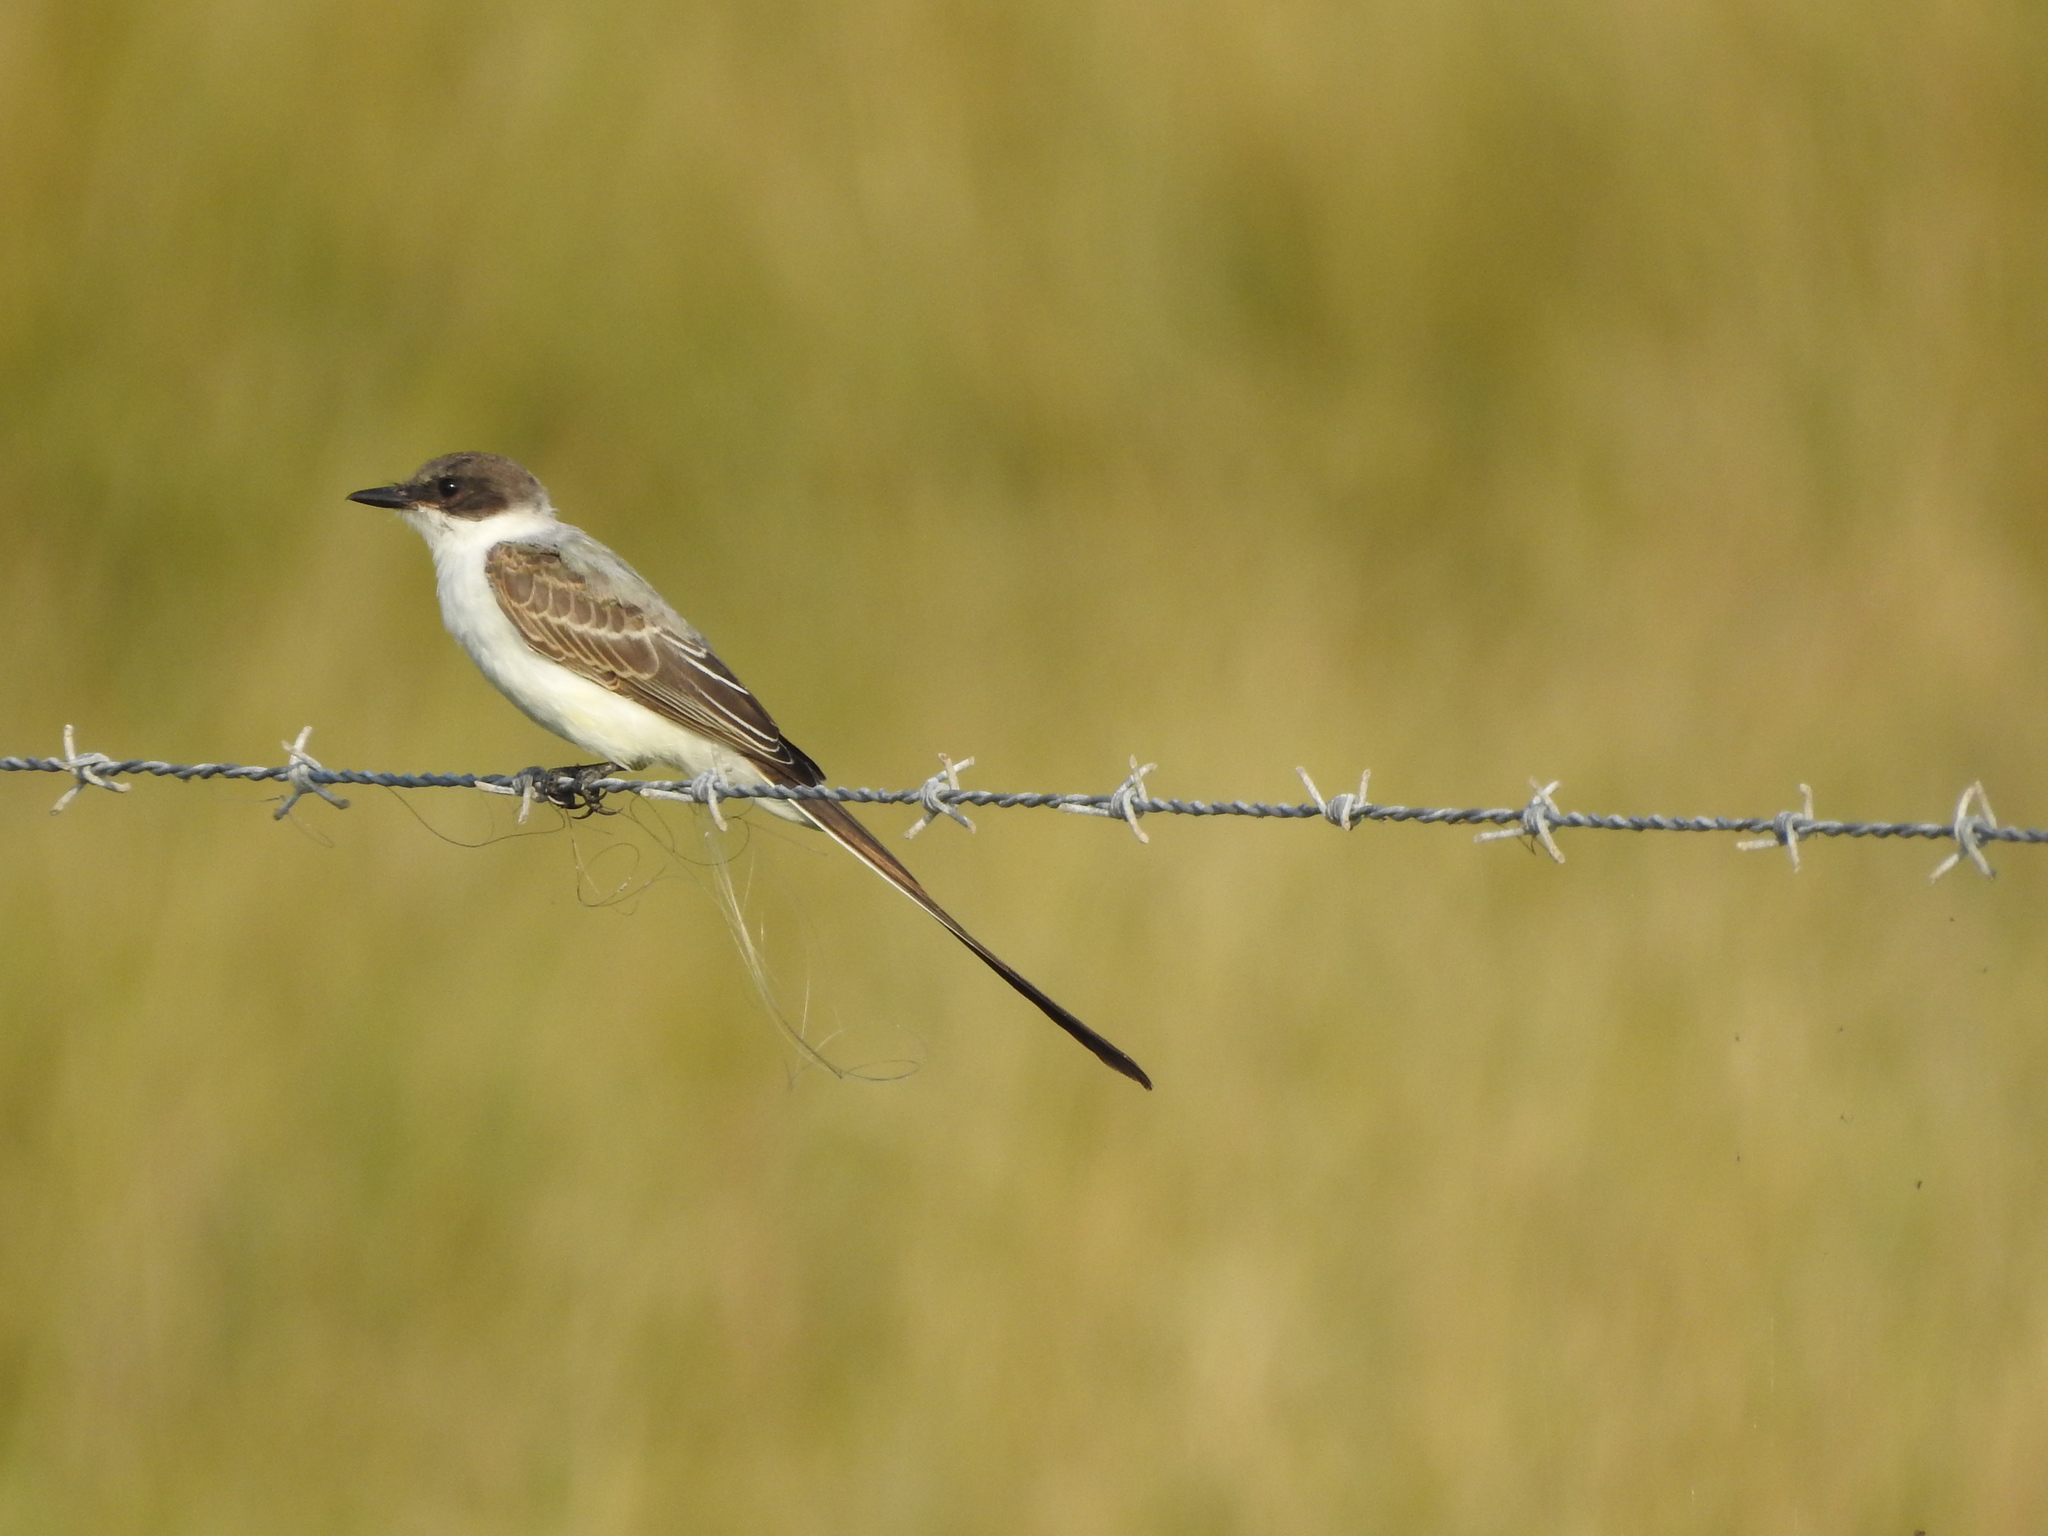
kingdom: Animalia
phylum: Chordata
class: Aves
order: Passeriformes
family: Tyrannidae
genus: Tyrannus
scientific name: Tyrannus savana
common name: Fork-tailed flycatcher
